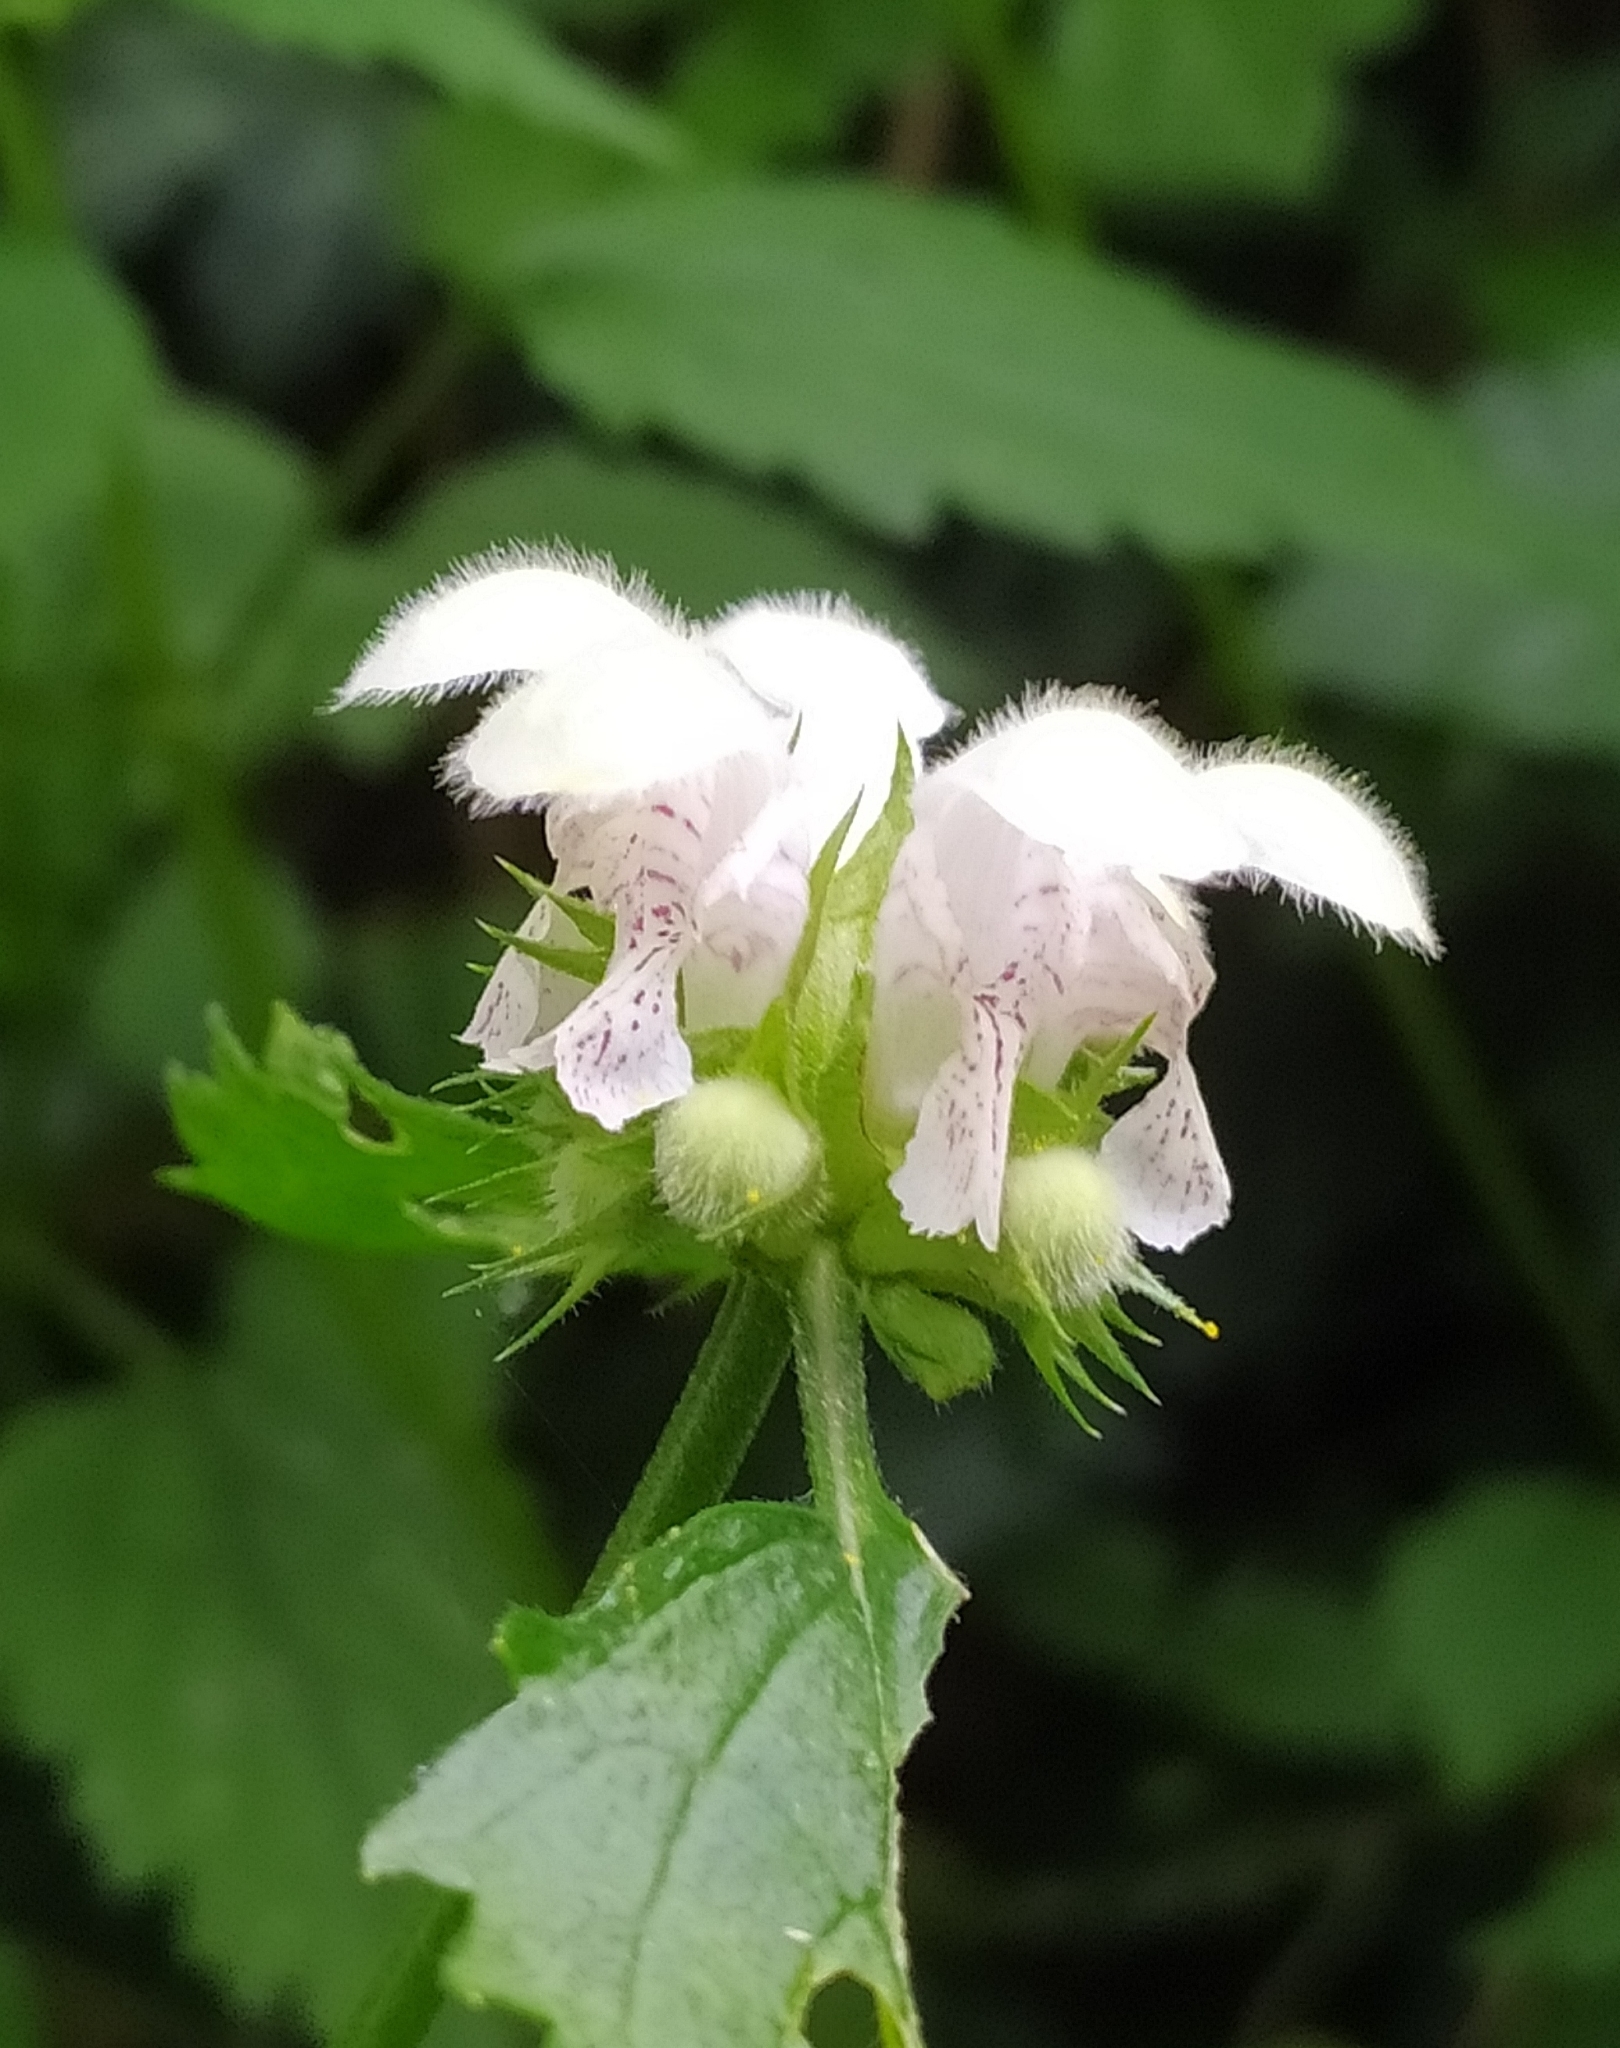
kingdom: Plantae
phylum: Tracheophyta
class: Magnoliopsida
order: Lamiales
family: Lamiaceae
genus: Lamium
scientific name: Lamium flexuosum
